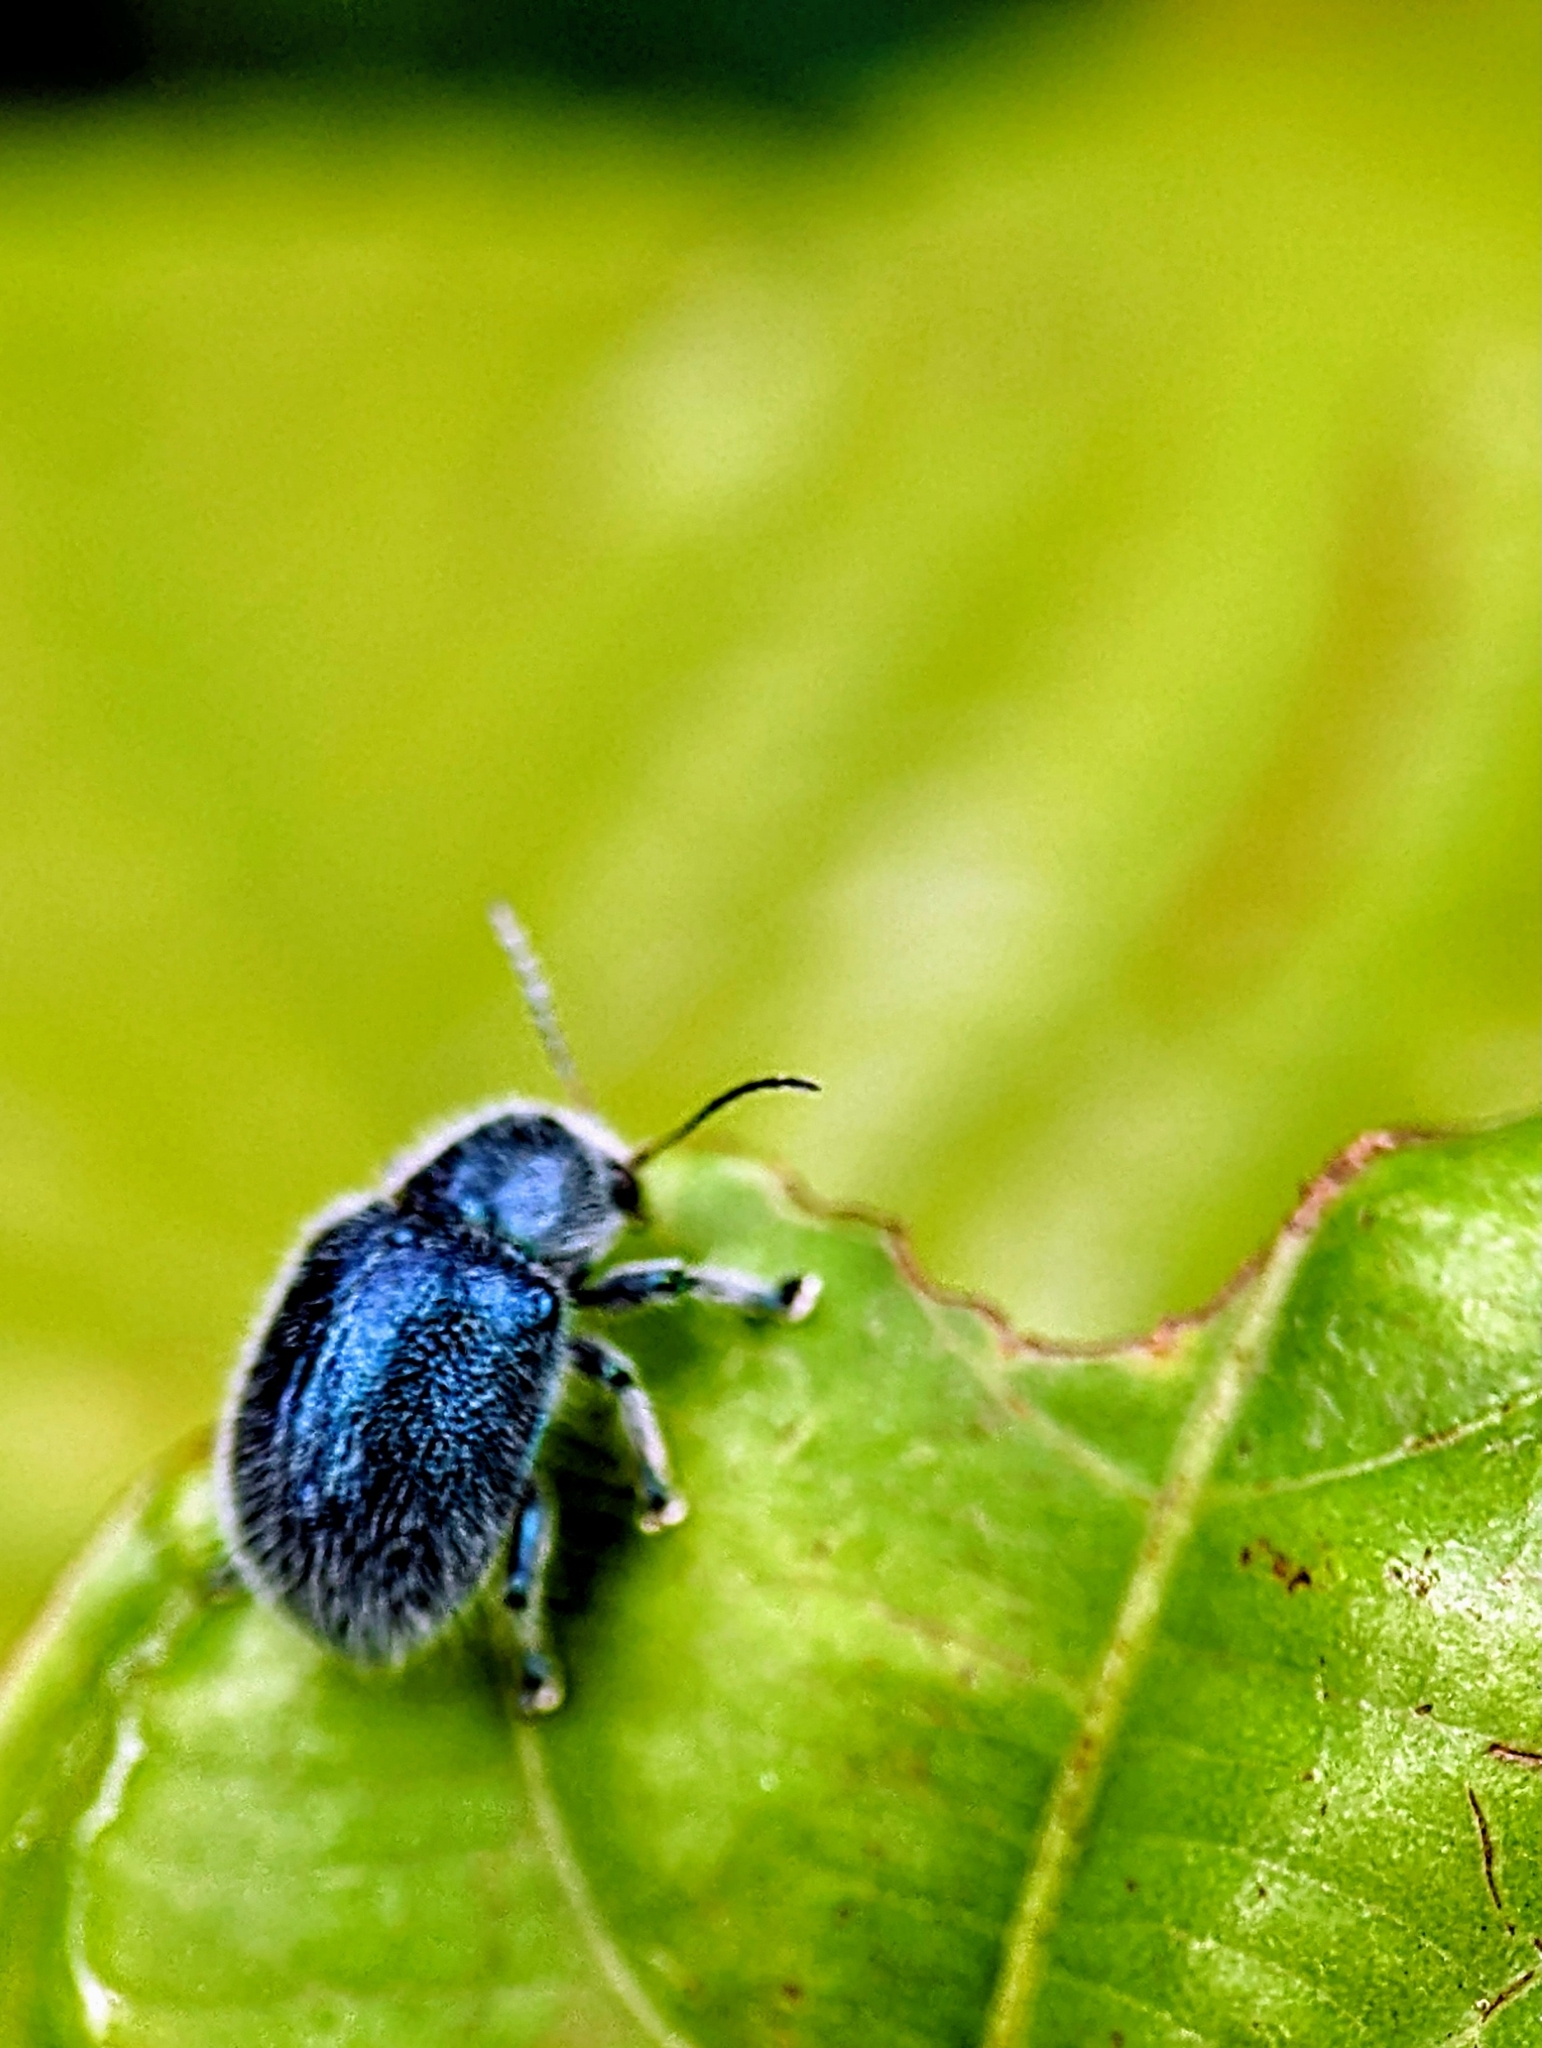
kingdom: Animalia
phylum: Arthropoda
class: Insecta
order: Coleoptera
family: Chrysomelidae
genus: Trichochrysea
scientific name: Trichochrysea
